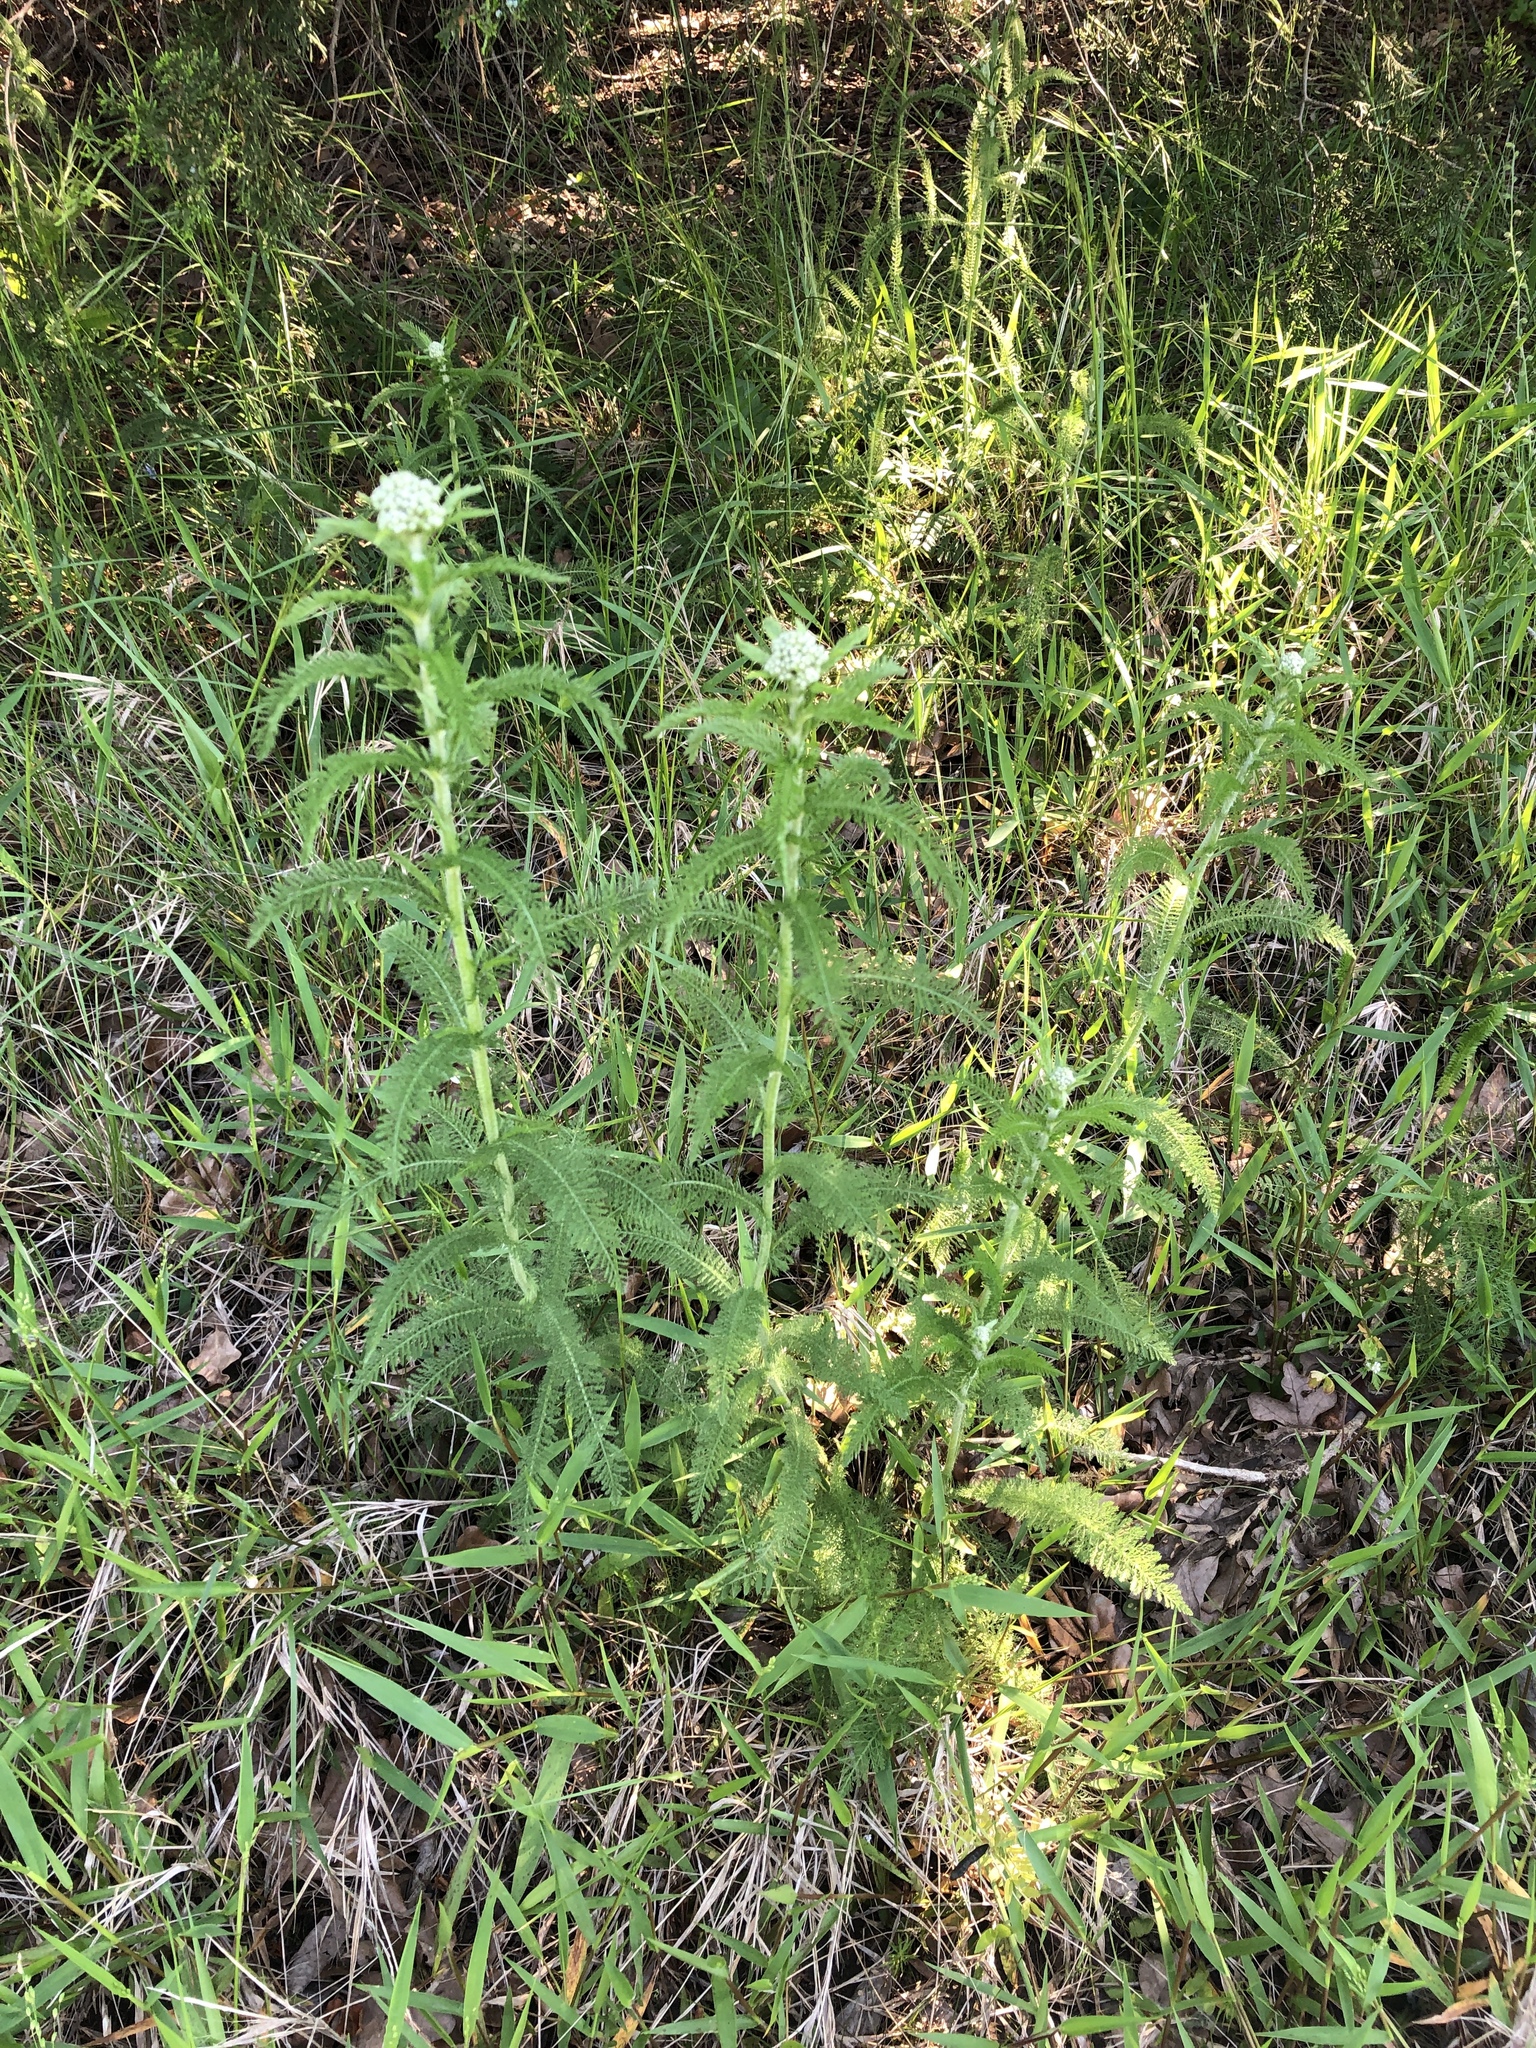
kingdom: Plantae
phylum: Tracheophyta
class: Magnoliopsida
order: Asterales
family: Asteraceae
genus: Achillea
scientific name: Achillea millefolium
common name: Yarrow
